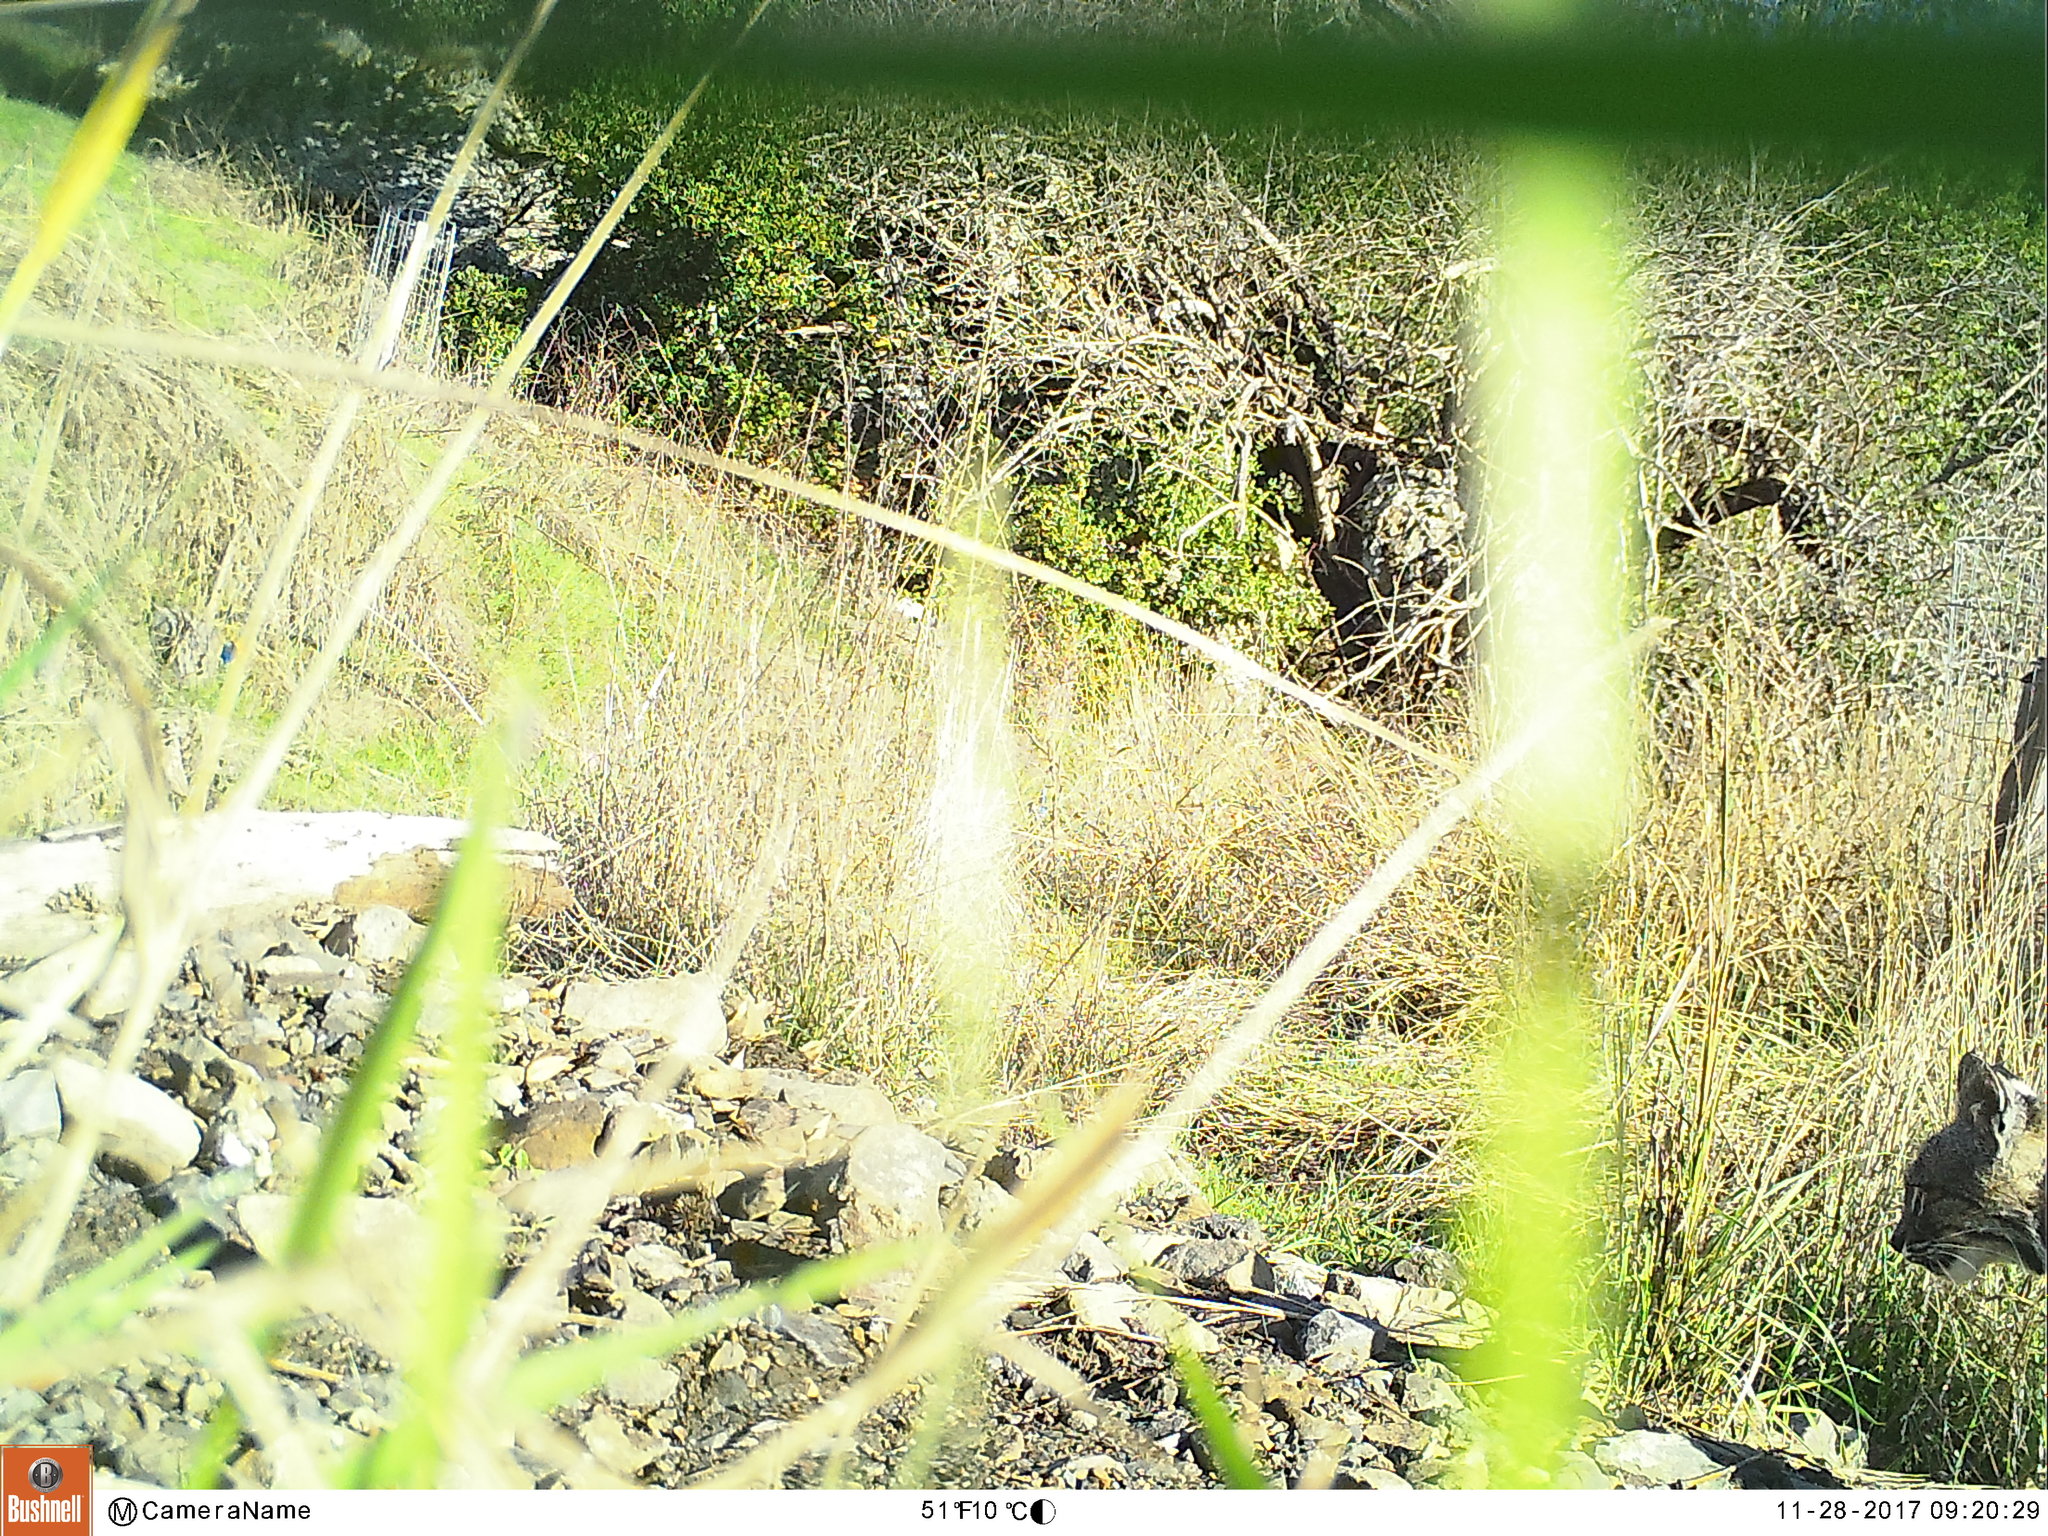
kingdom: Animalia
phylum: Chordata
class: Mammalia
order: Carnivora
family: Felidae
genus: Lynx
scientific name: Lynx rufus
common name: Bobcat
